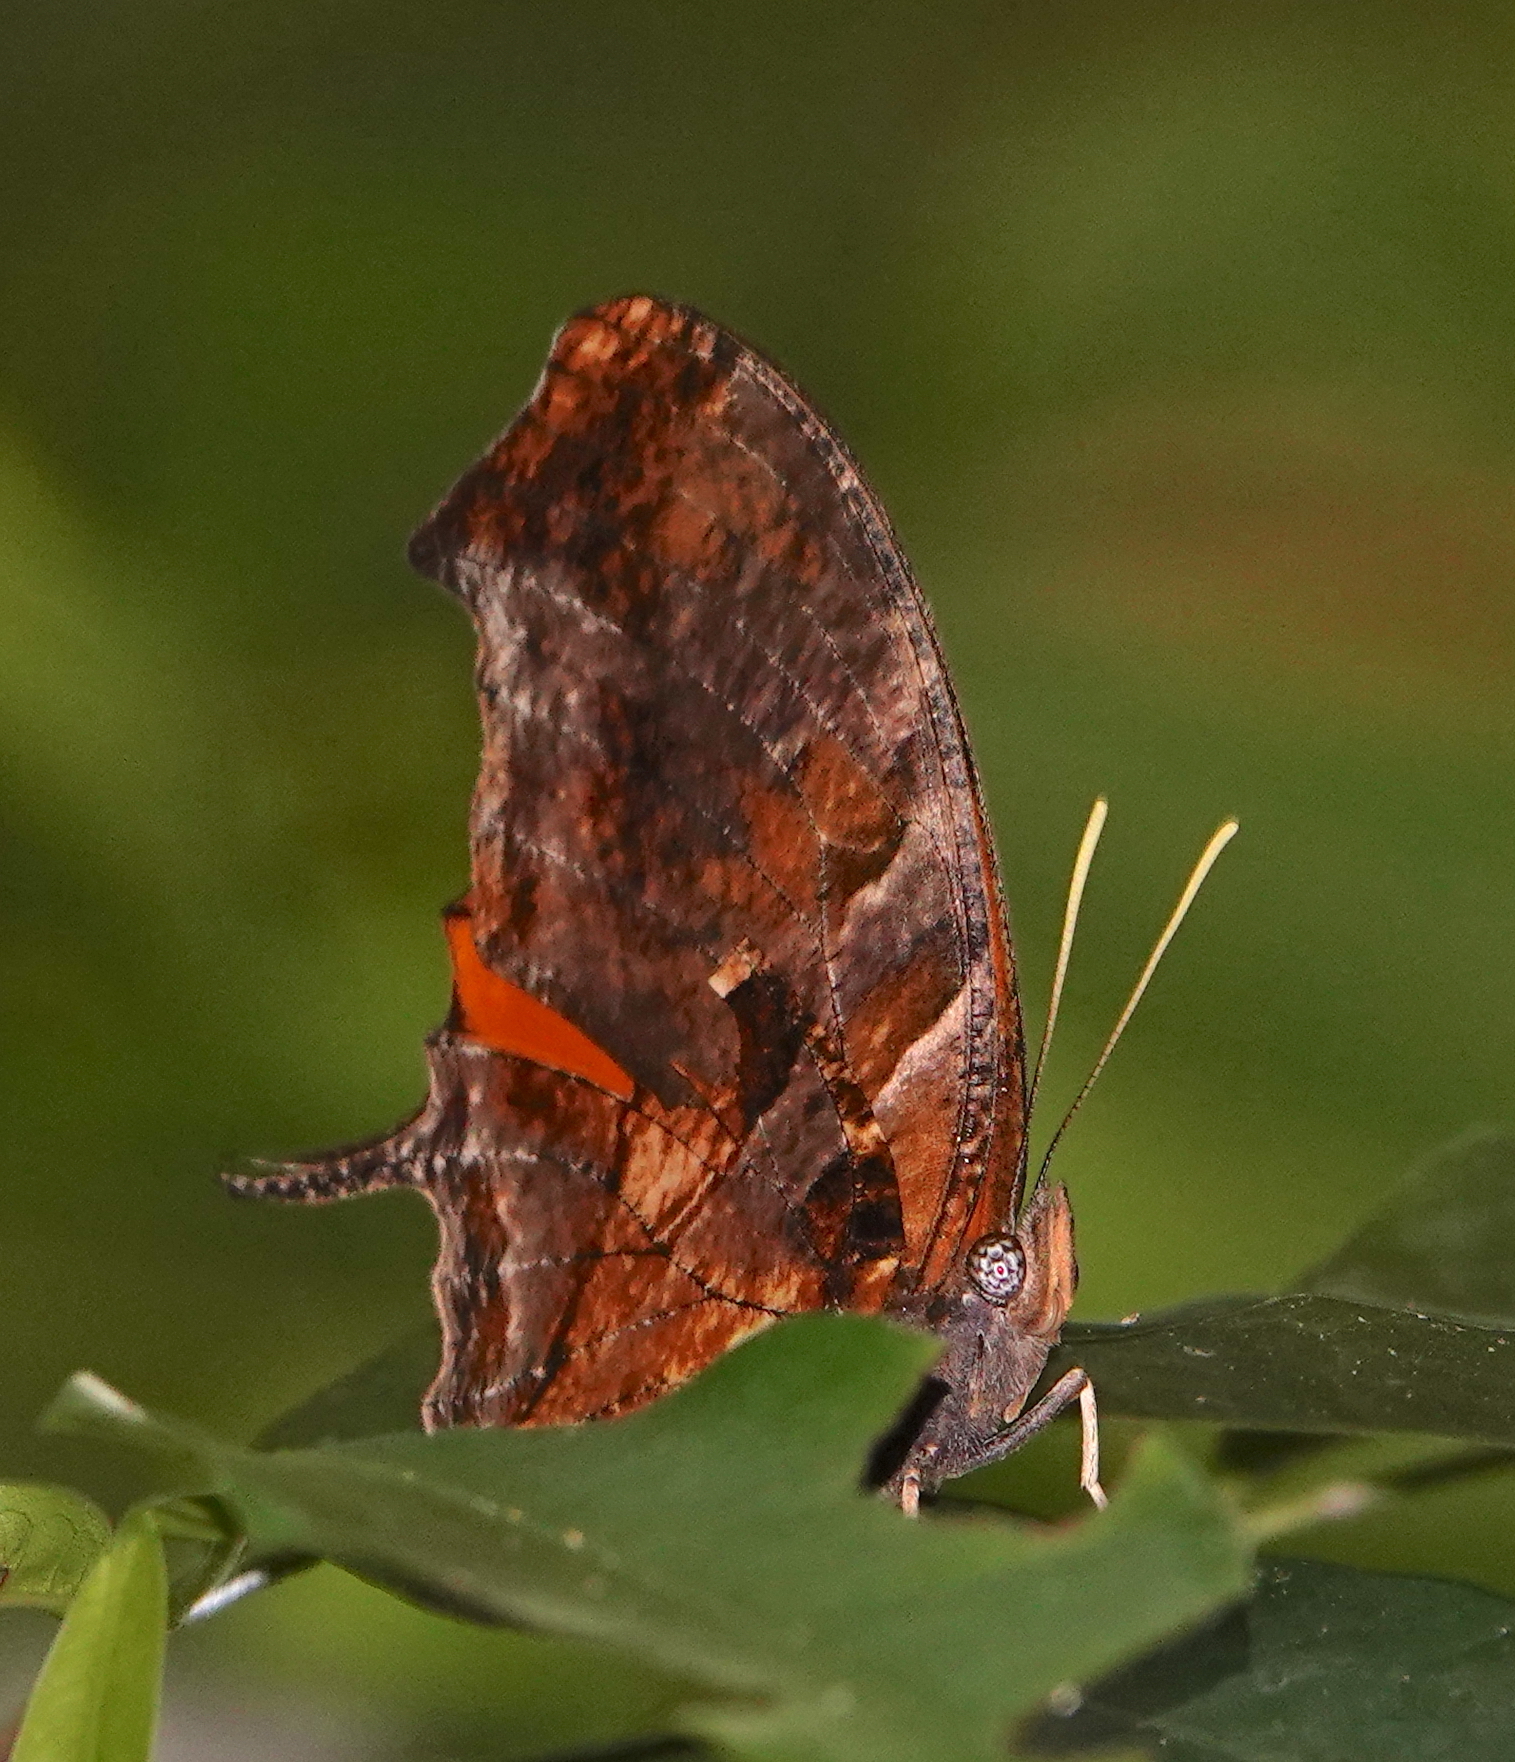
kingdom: Animalia
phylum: Arthropoda
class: Insecta
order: Lepidoptera
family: Nymphalidae
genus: Consul
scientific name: Consul fabius
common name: Tiger leafwing
